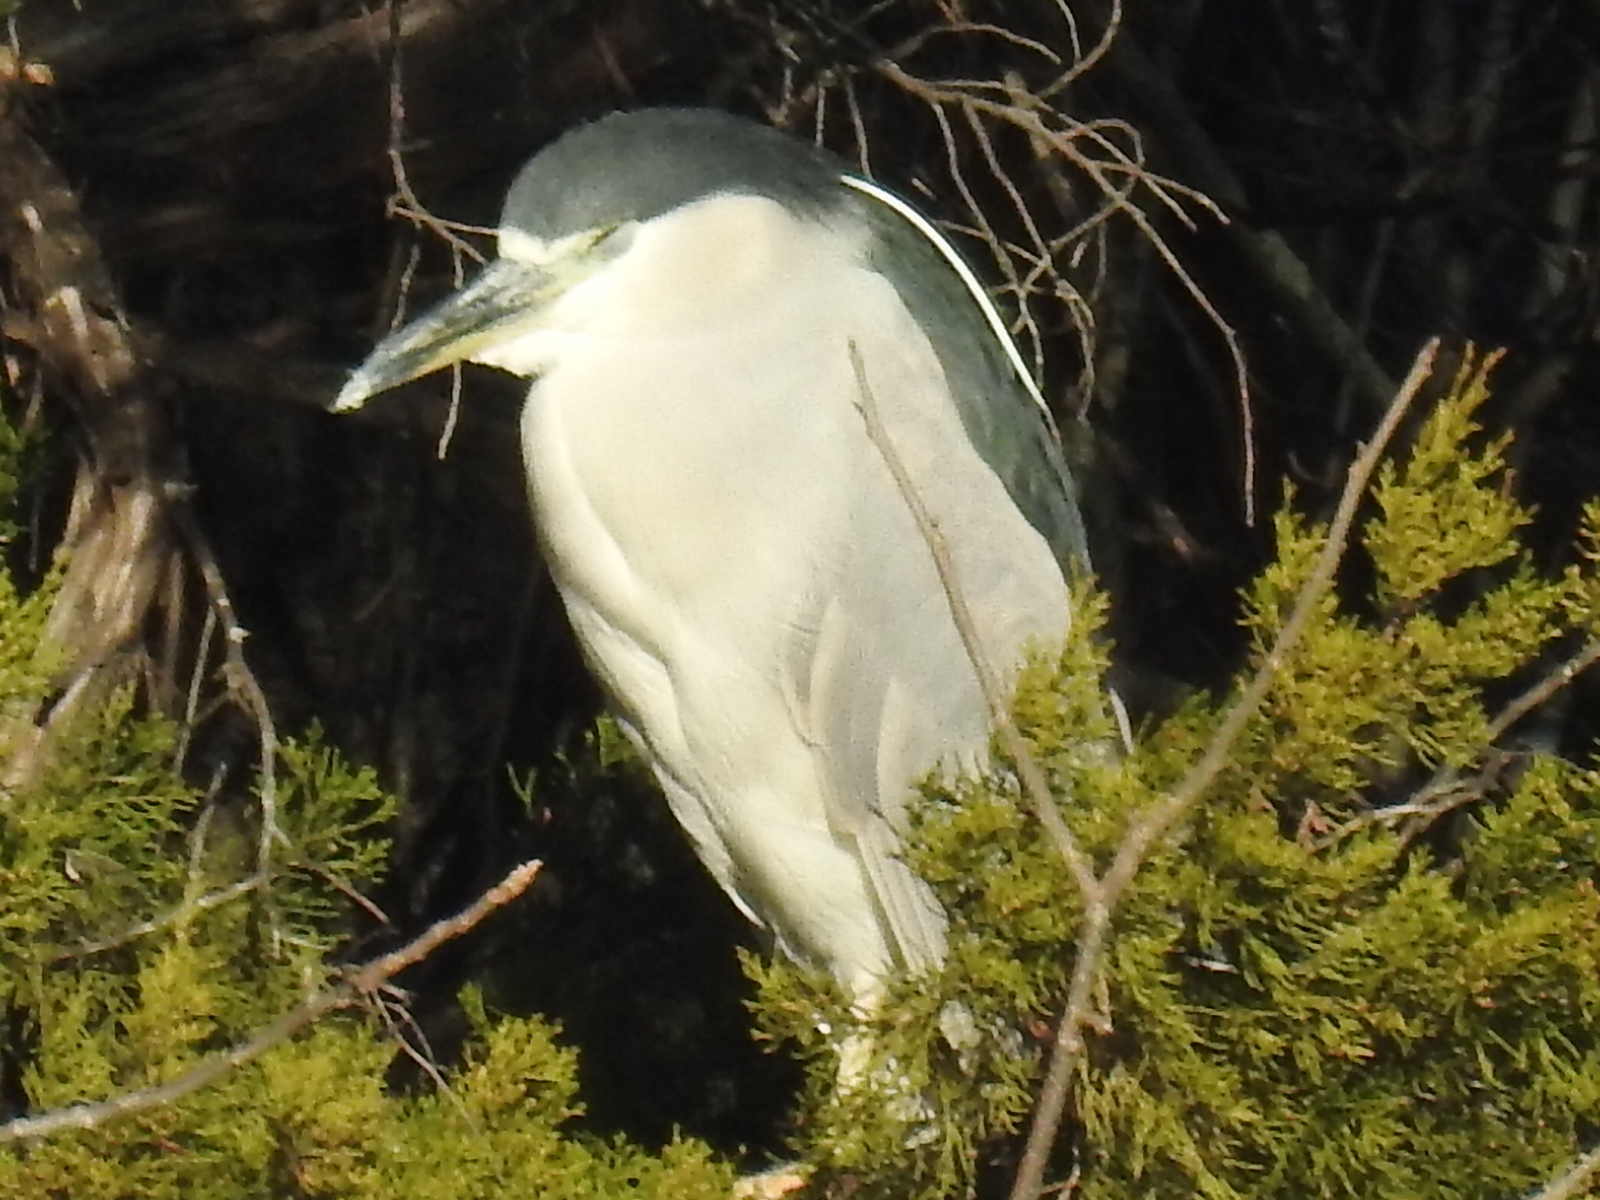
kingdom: Animalia
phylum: Chordata
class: Aves
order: Pelecaniformes
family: Ardeidae
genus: Nycticorax
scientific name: Nycticorax nycticorax
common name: Black-crowned night heron
